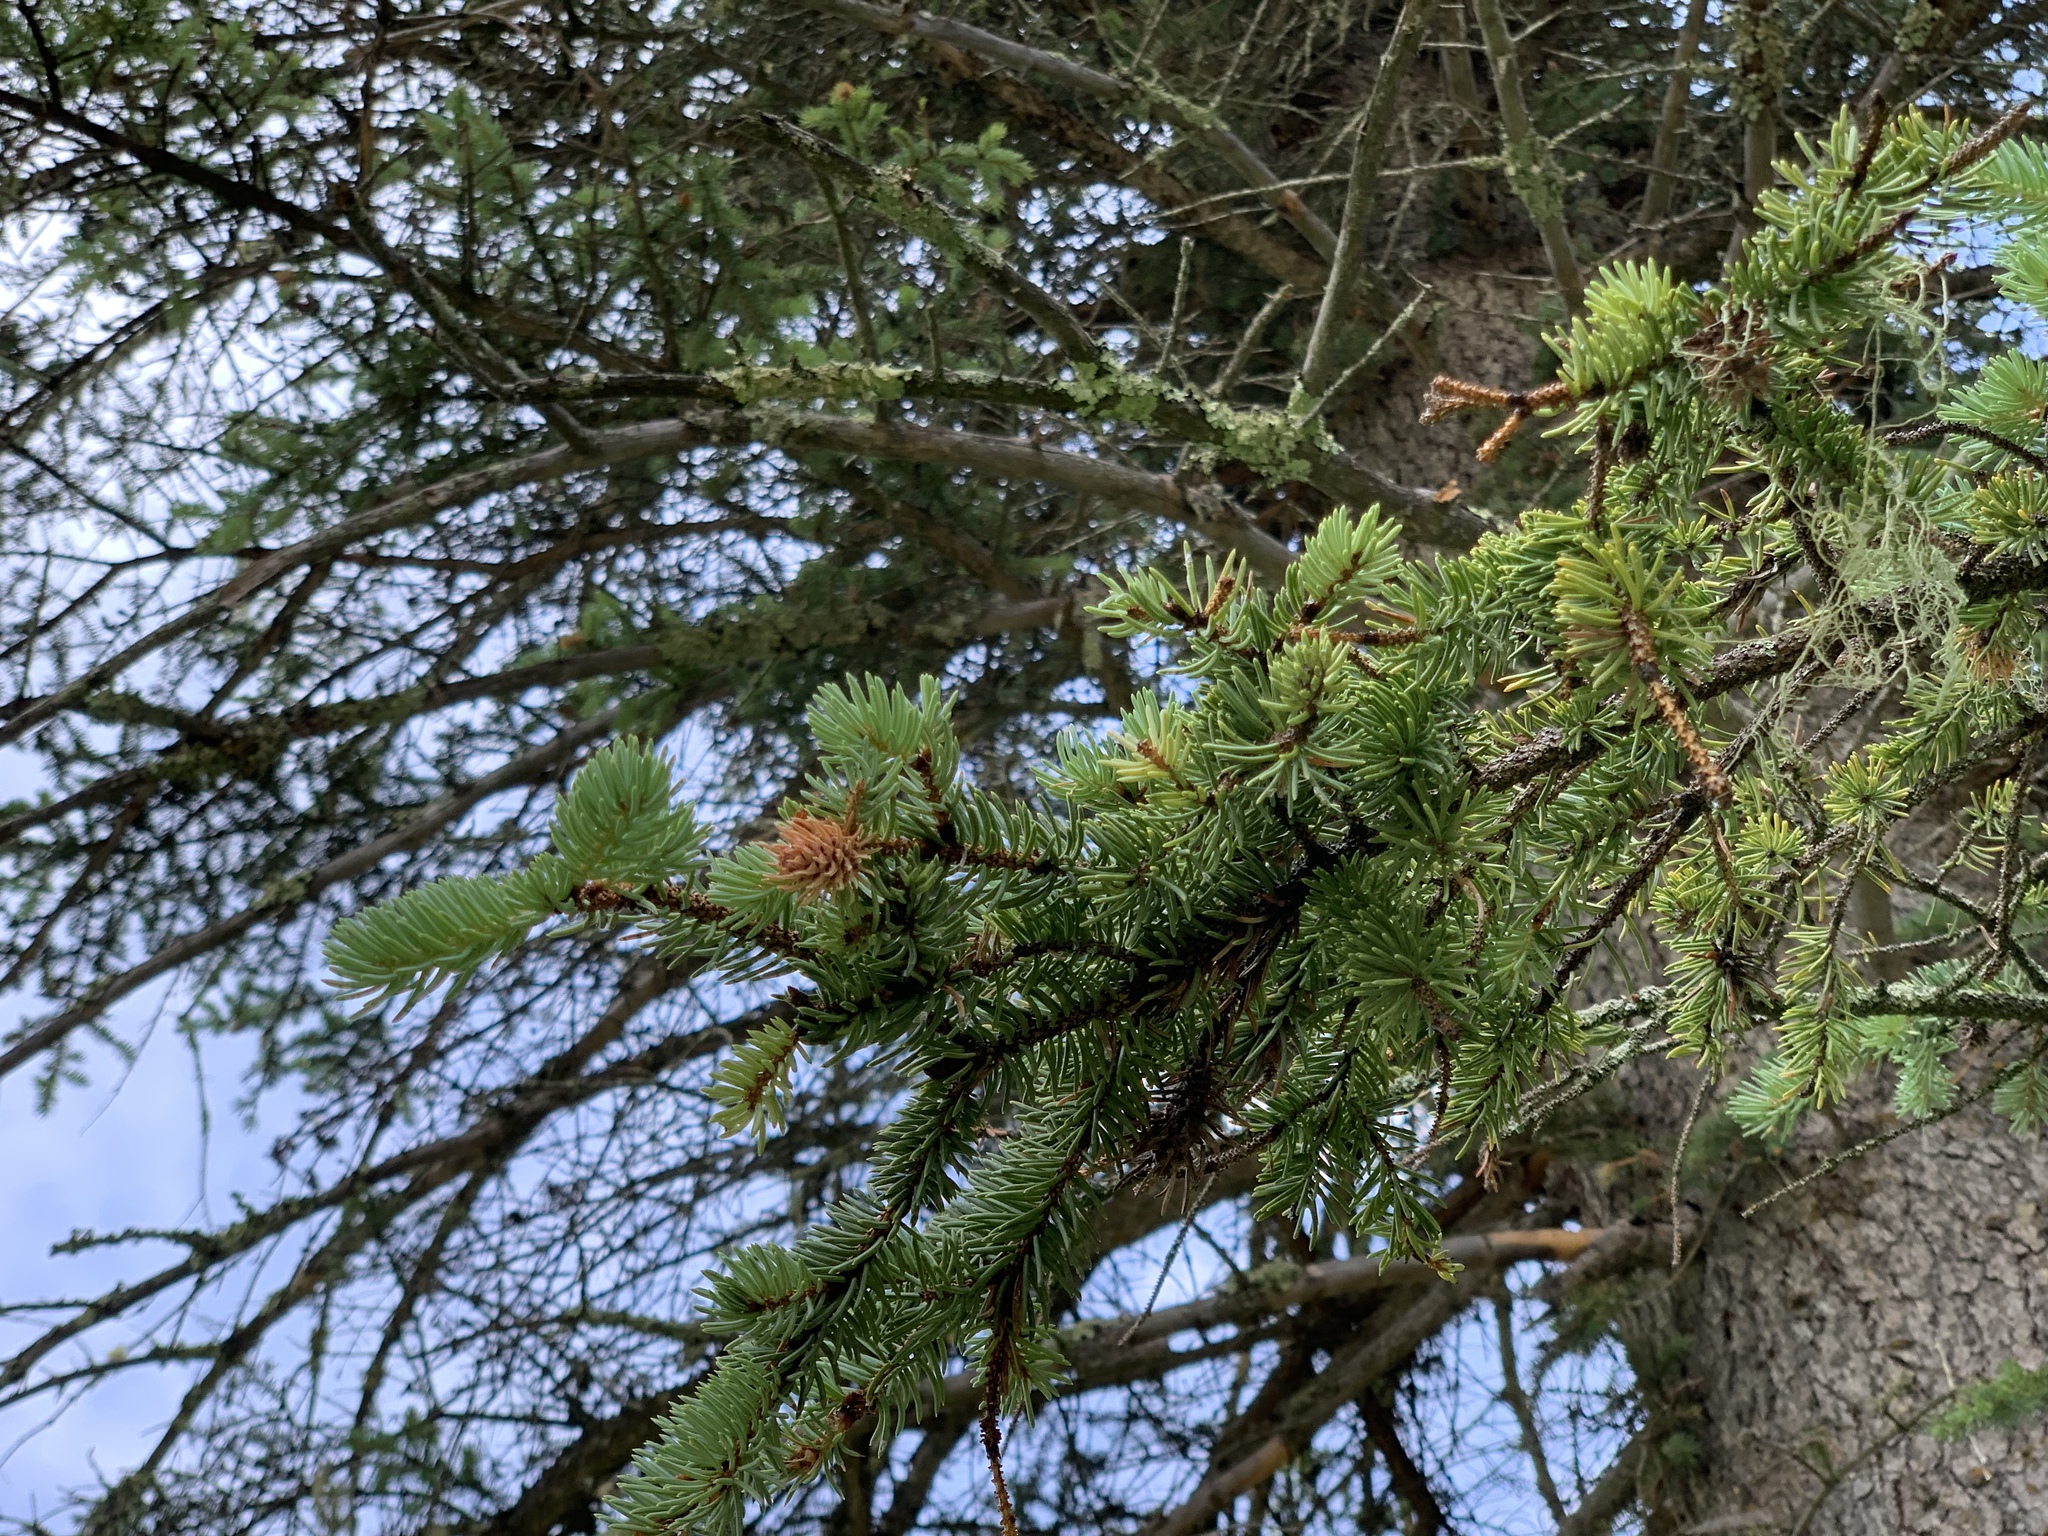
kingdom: Plantae
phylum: Tracheophyta
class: Pinopsida
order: Pinales
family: Pinaceae
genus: Picea
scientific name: Picea engelmannii
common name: Engelmann spruce
